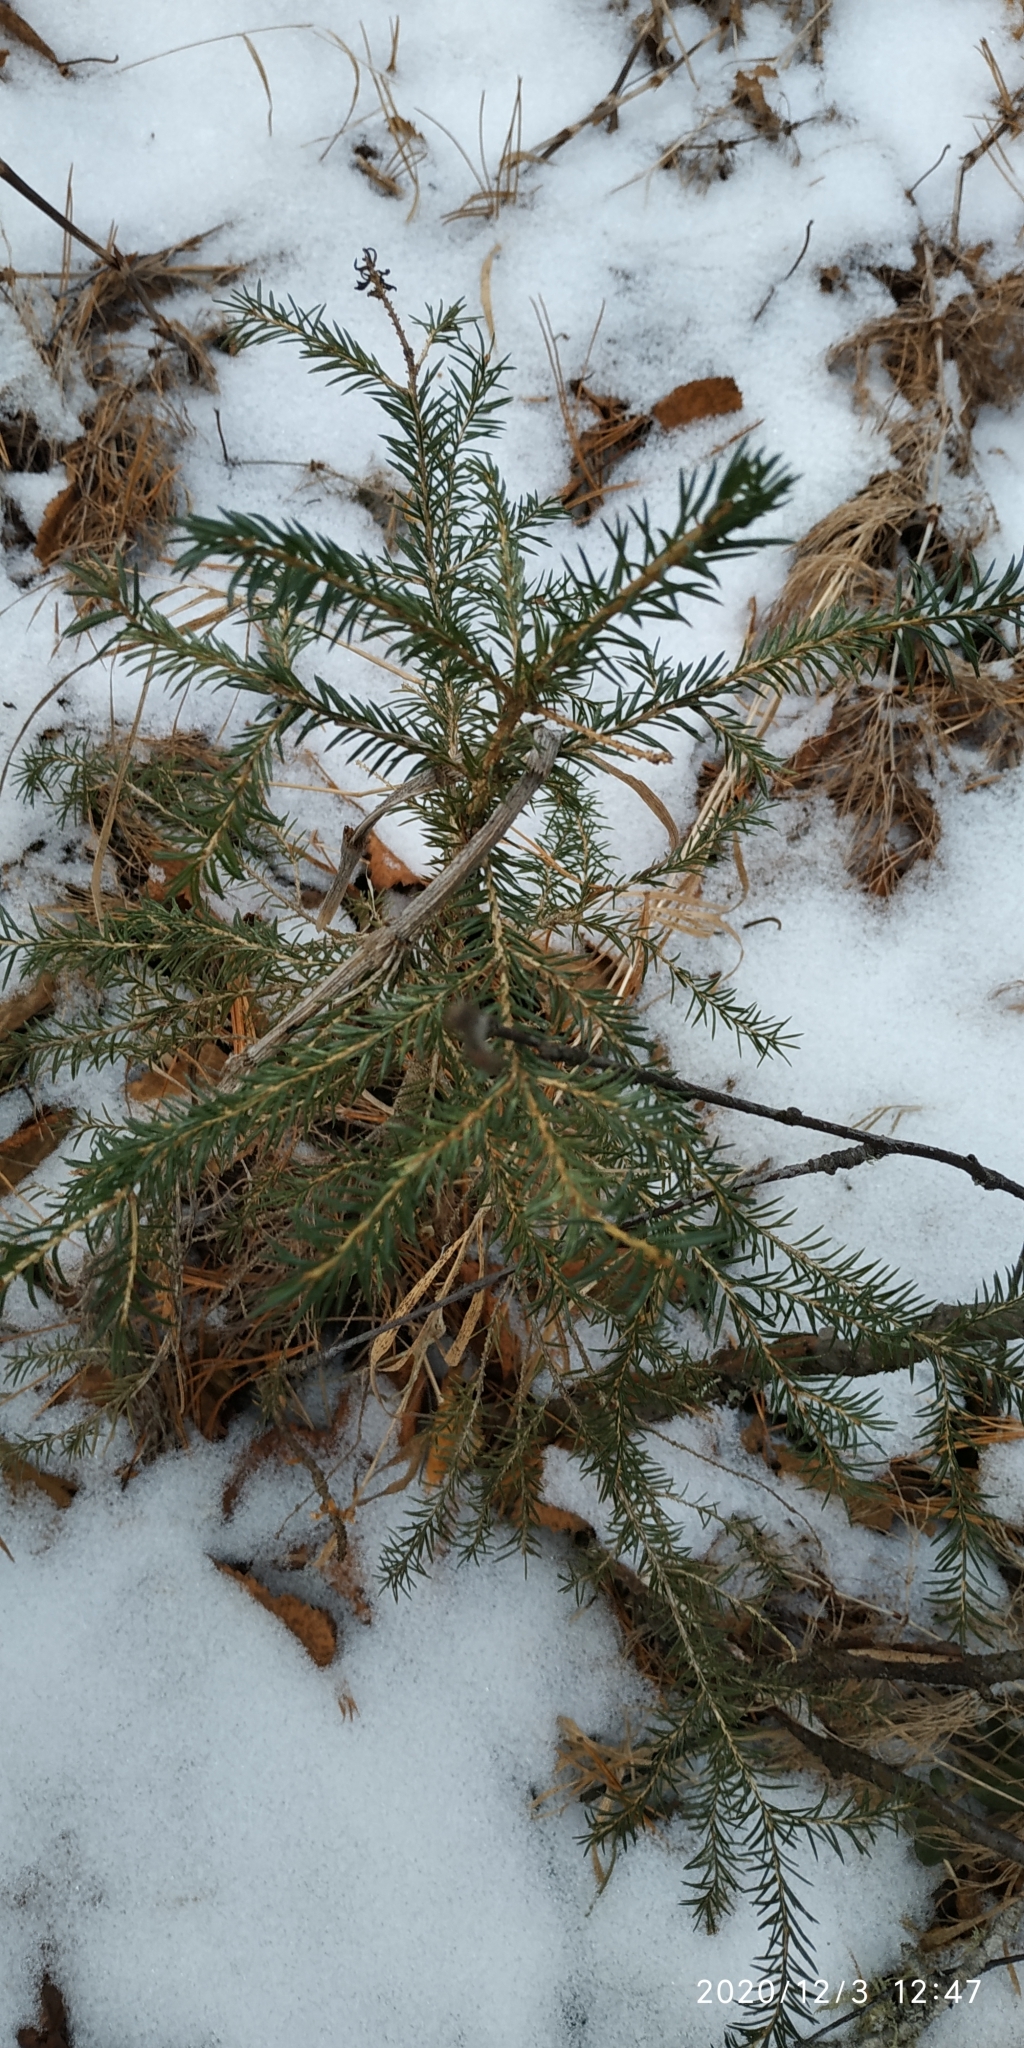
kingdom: Plantae
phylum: Tracheophyta
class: Pinopsida
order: Pinales
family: Pinaceae
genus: Picea
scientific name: Picea obovata
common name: Siberian spruce
